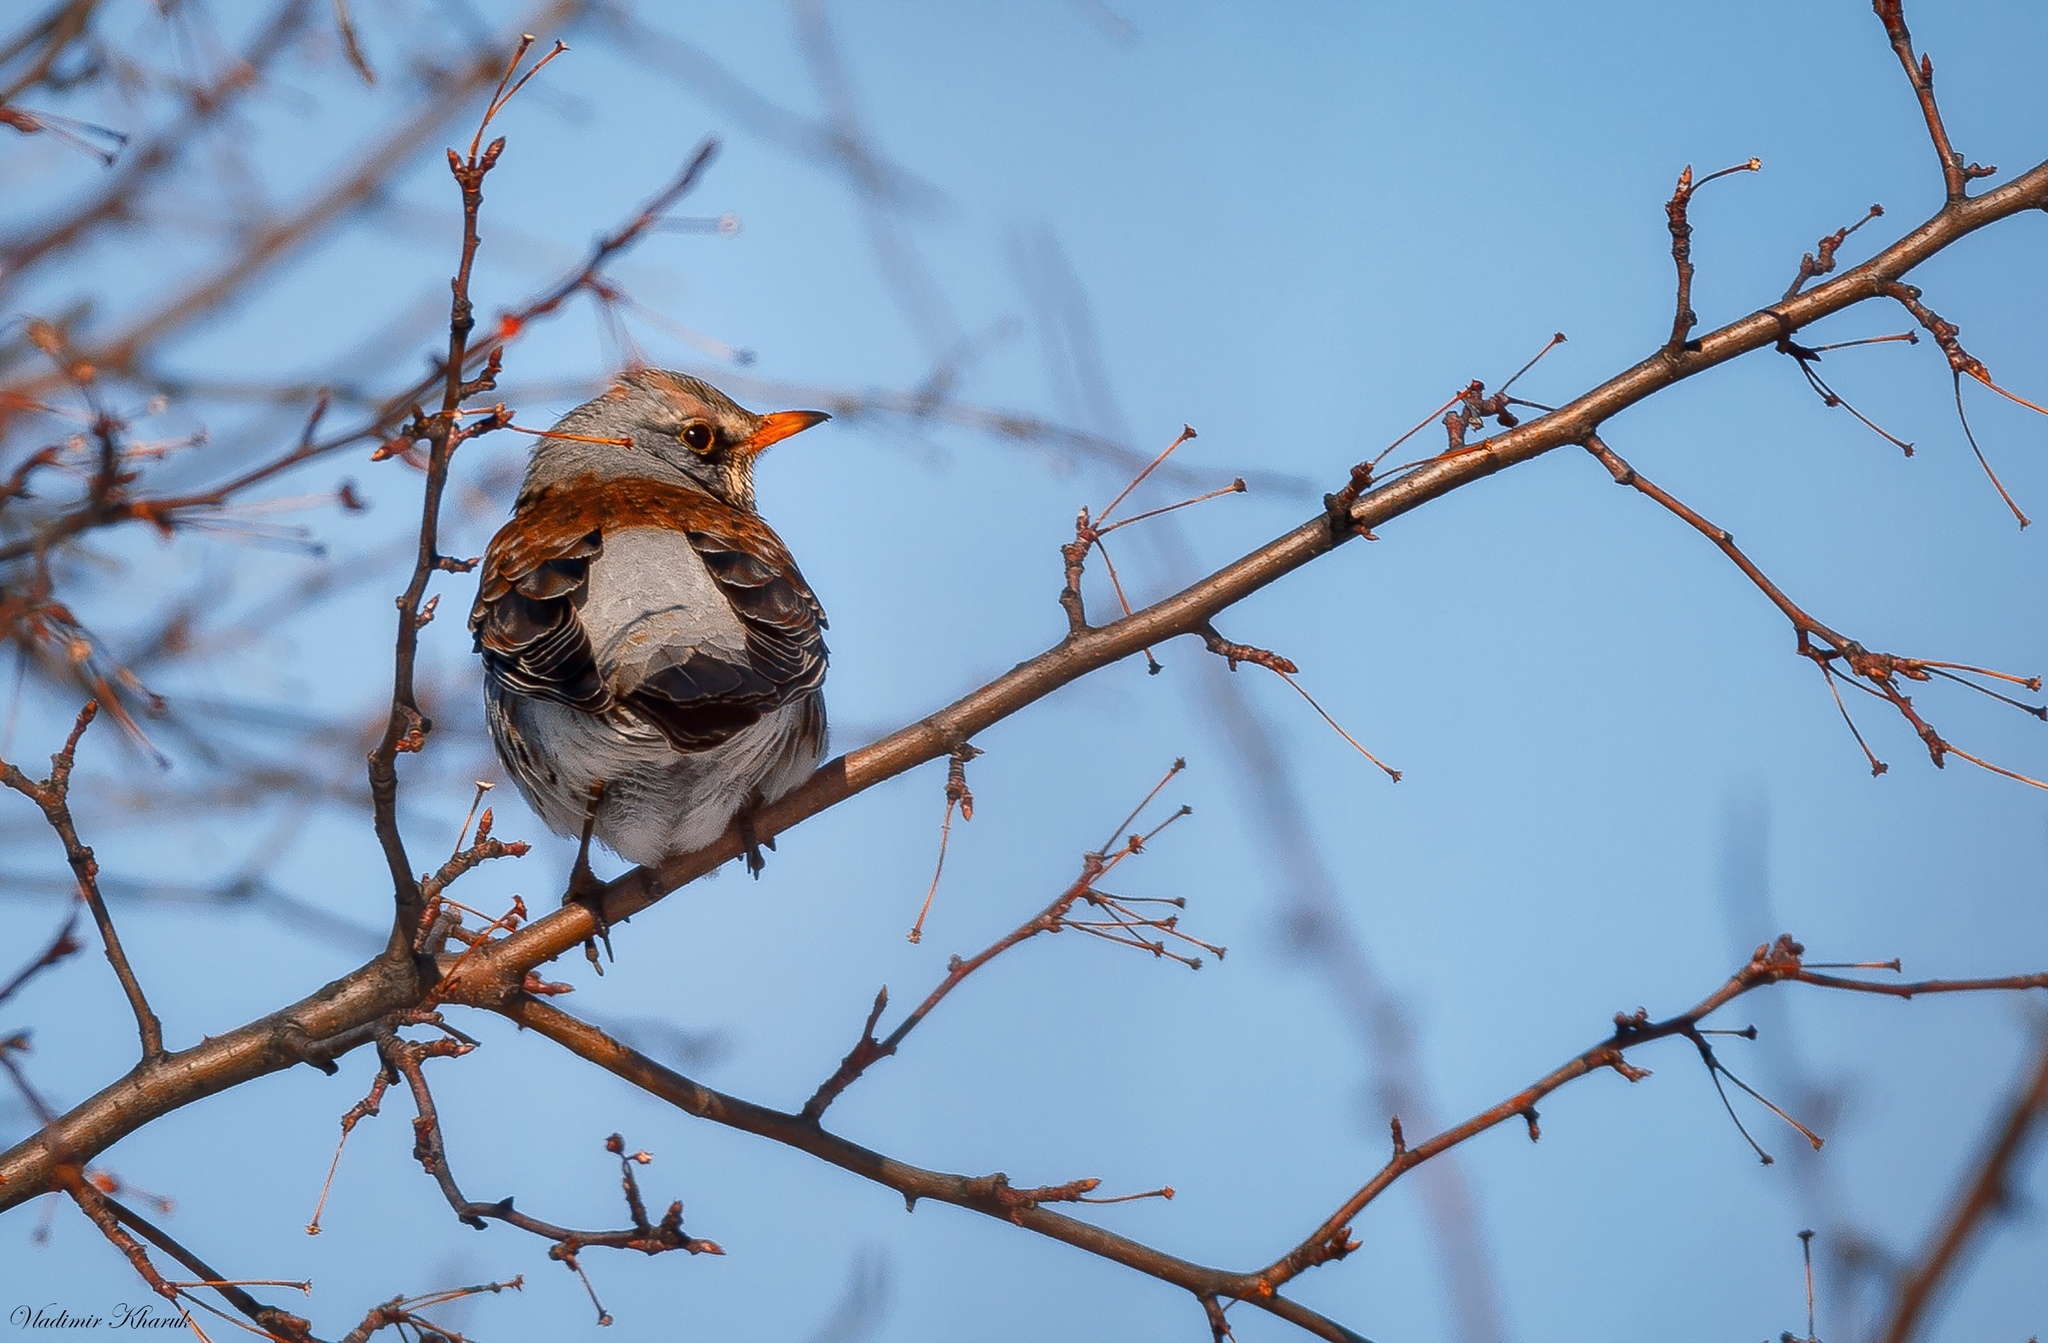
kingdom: Animalia
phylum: Chordata
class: Aves
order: Passeriformes
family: Turdidae
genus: Turdus
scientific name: Turdus pilaris
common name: Fieldfare
